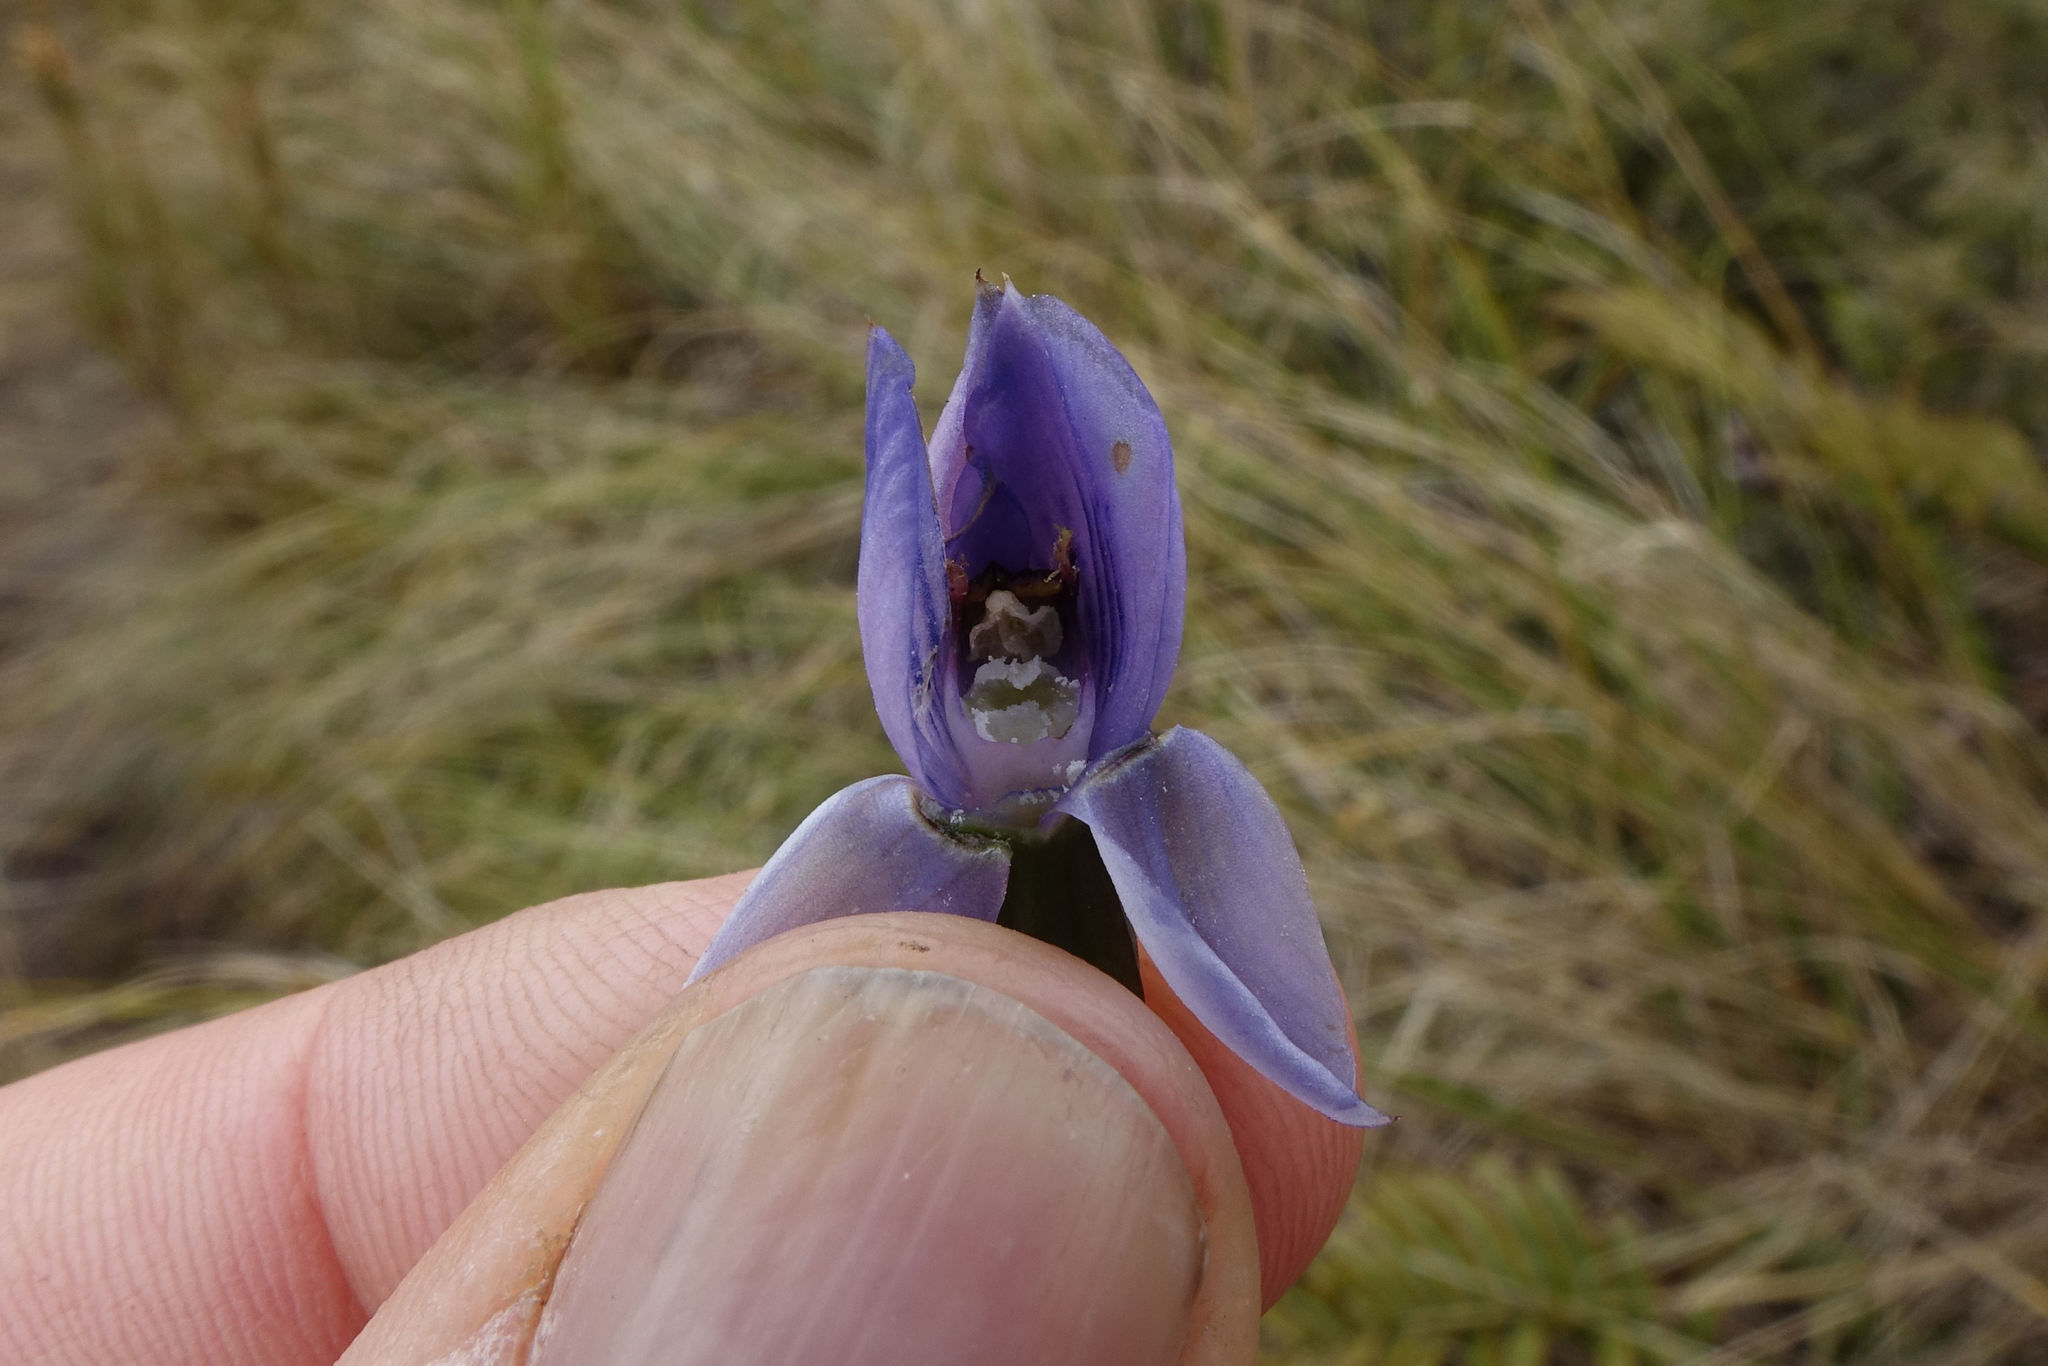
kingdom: Plantae
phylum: Tracheophyta
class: Liliopsida
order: Asparagales
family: Orchidaceae
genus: Thelymitra
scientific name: Thelymitra pulchella
